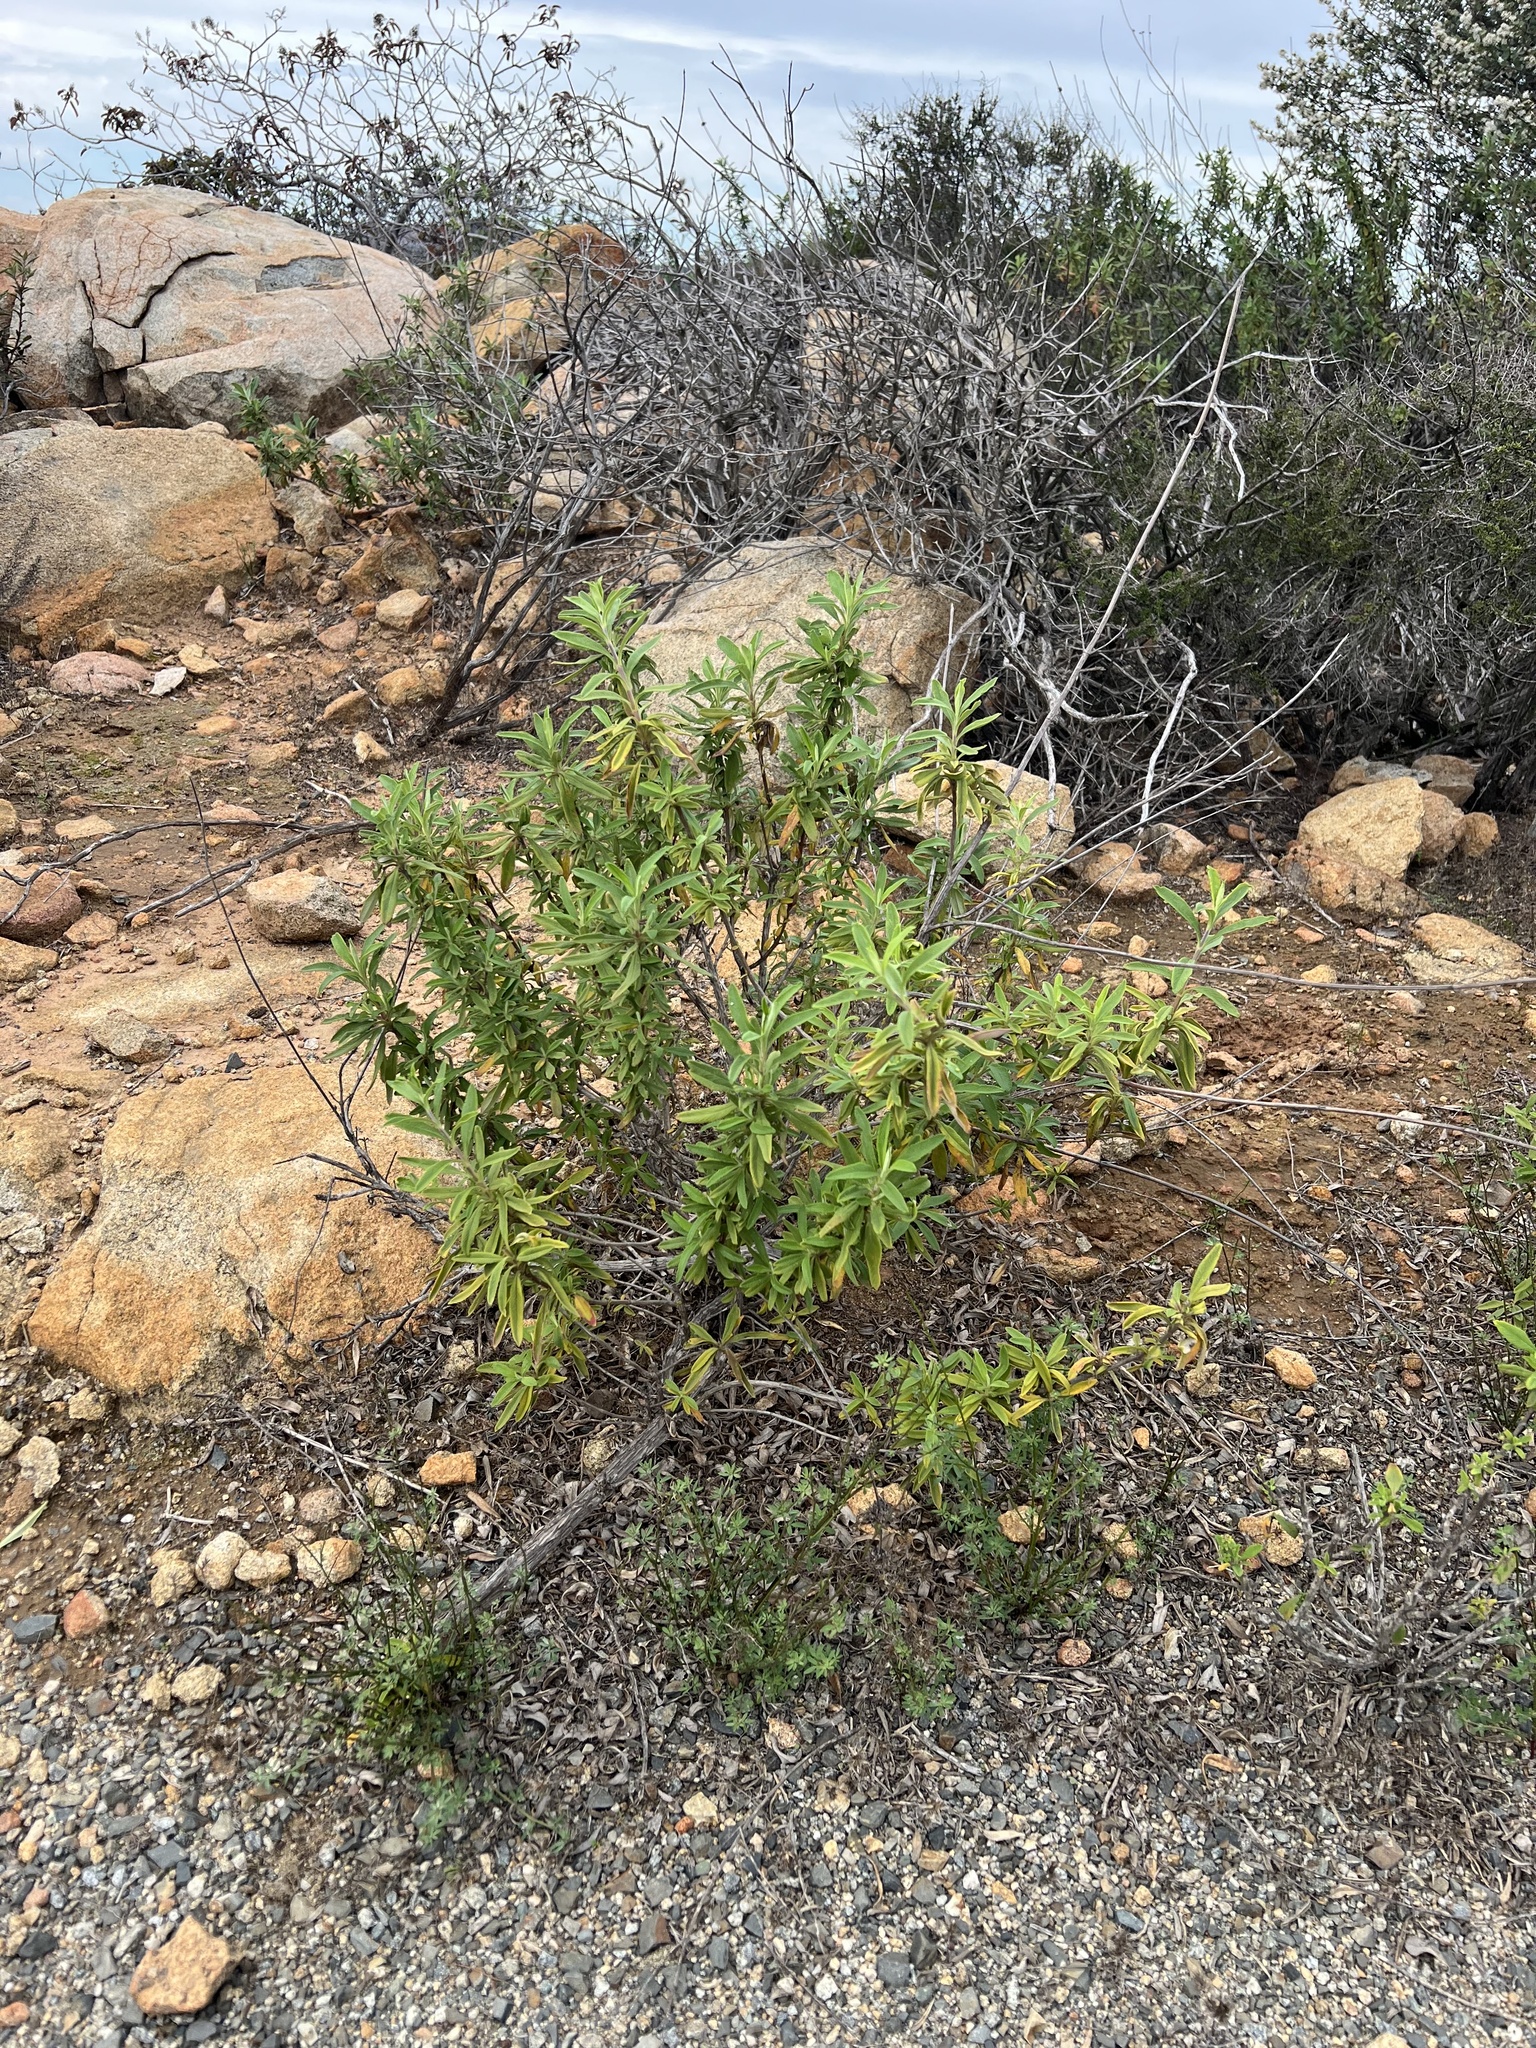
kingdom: Plantae
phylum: Tracheophyta
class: Magnoliopsida
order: Lamiales
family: Lamiaceae
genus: Salvia
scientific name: Salvia mellifera
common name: Black sage
